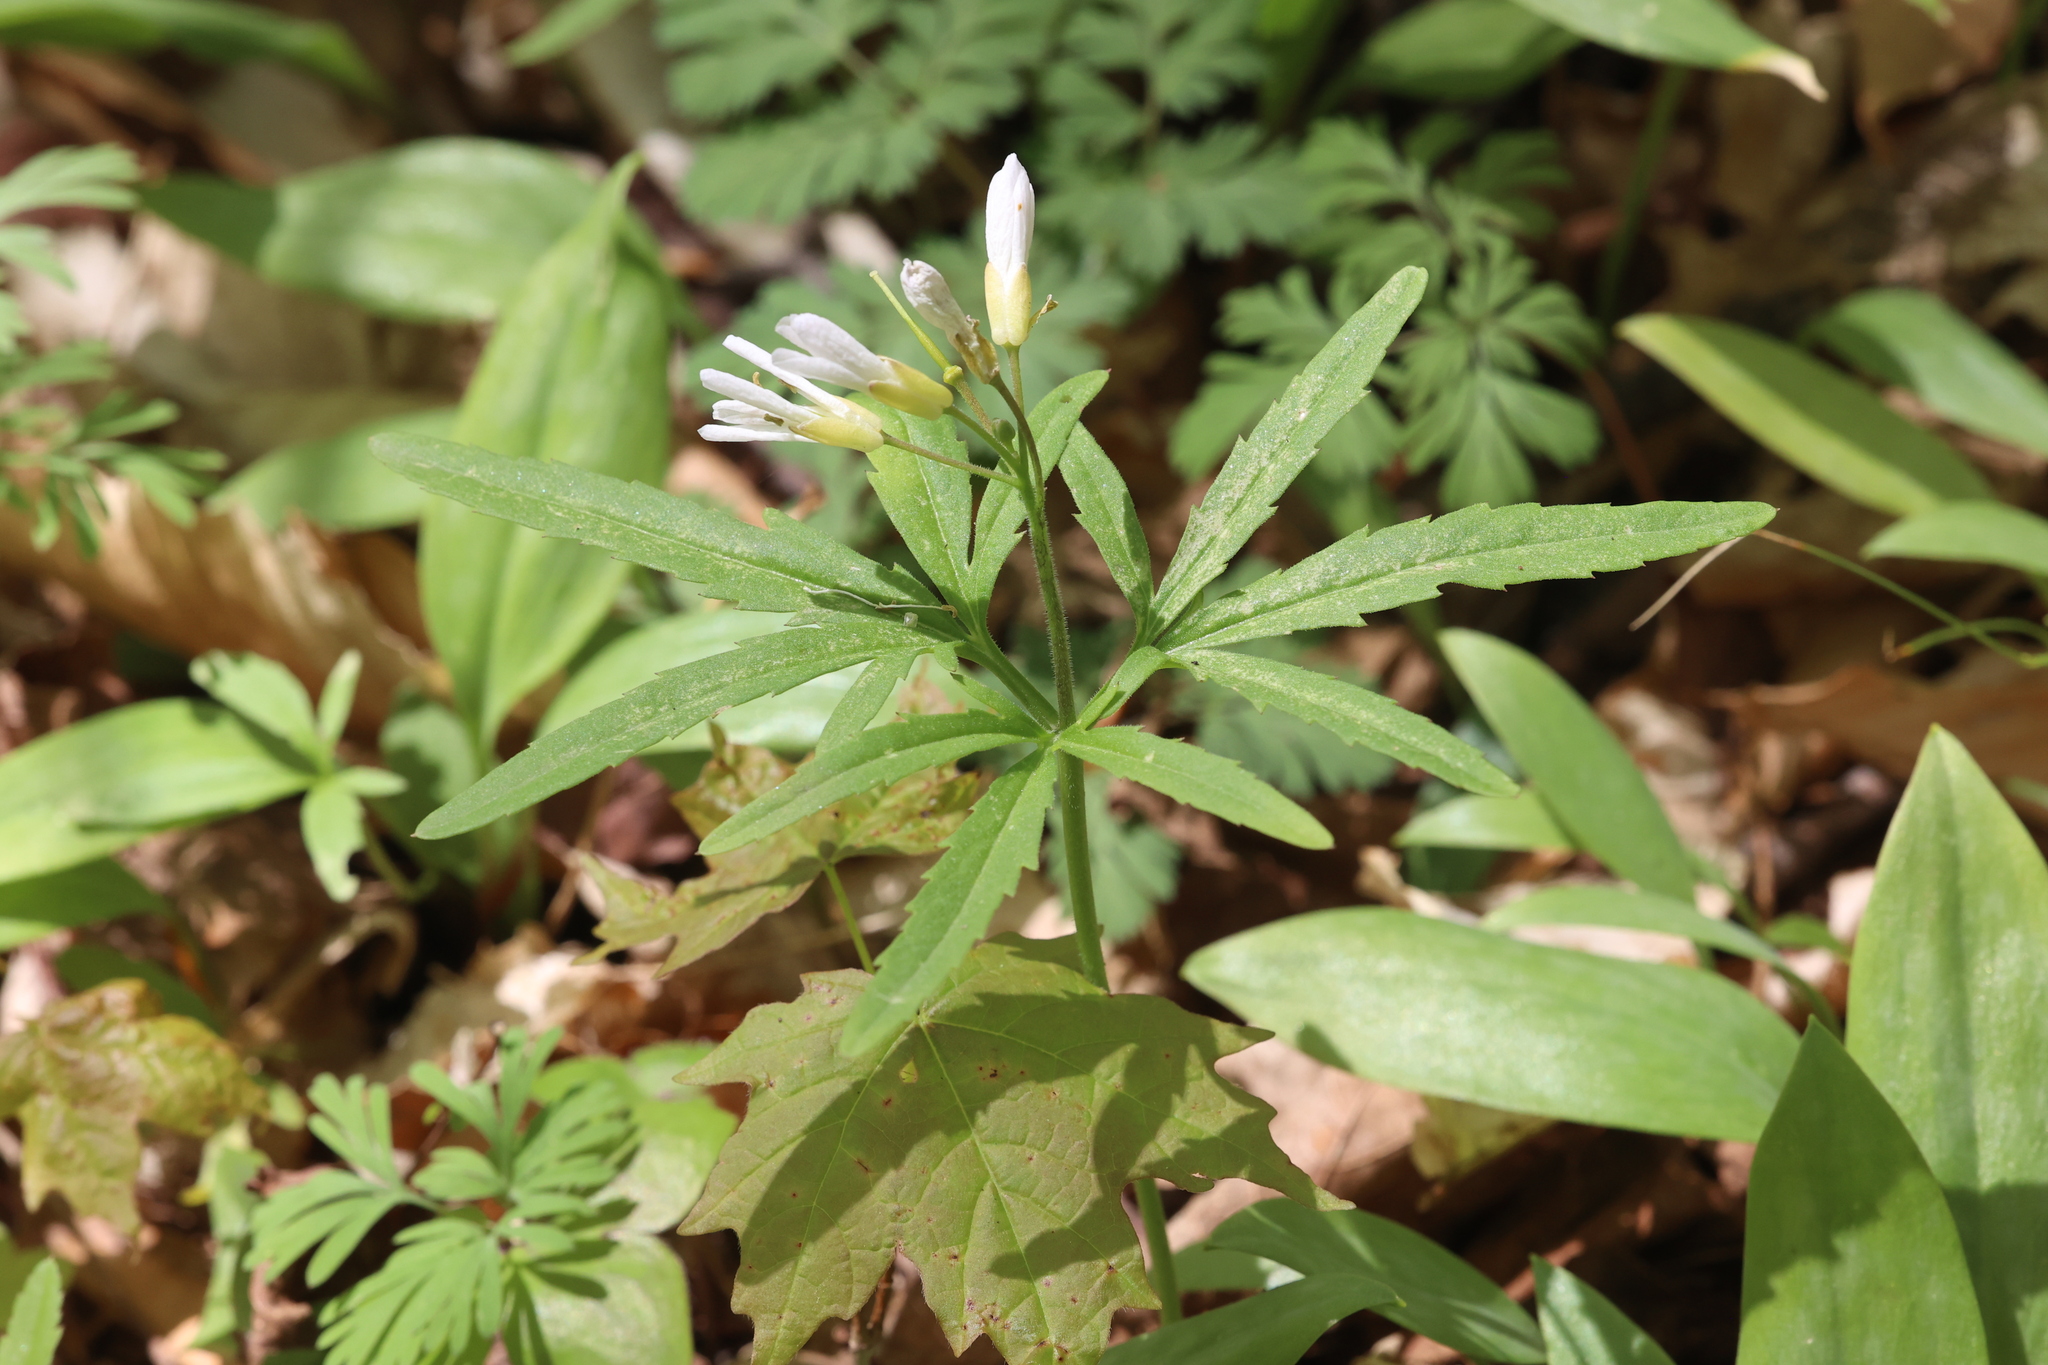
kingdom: Plantae
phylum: Tracheophyta
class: Magnoliopsida
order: Brassicales
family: Brassicaceae
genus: Cardamine
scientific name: Cardamine concatenata
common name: Cut-leaf toothcup
